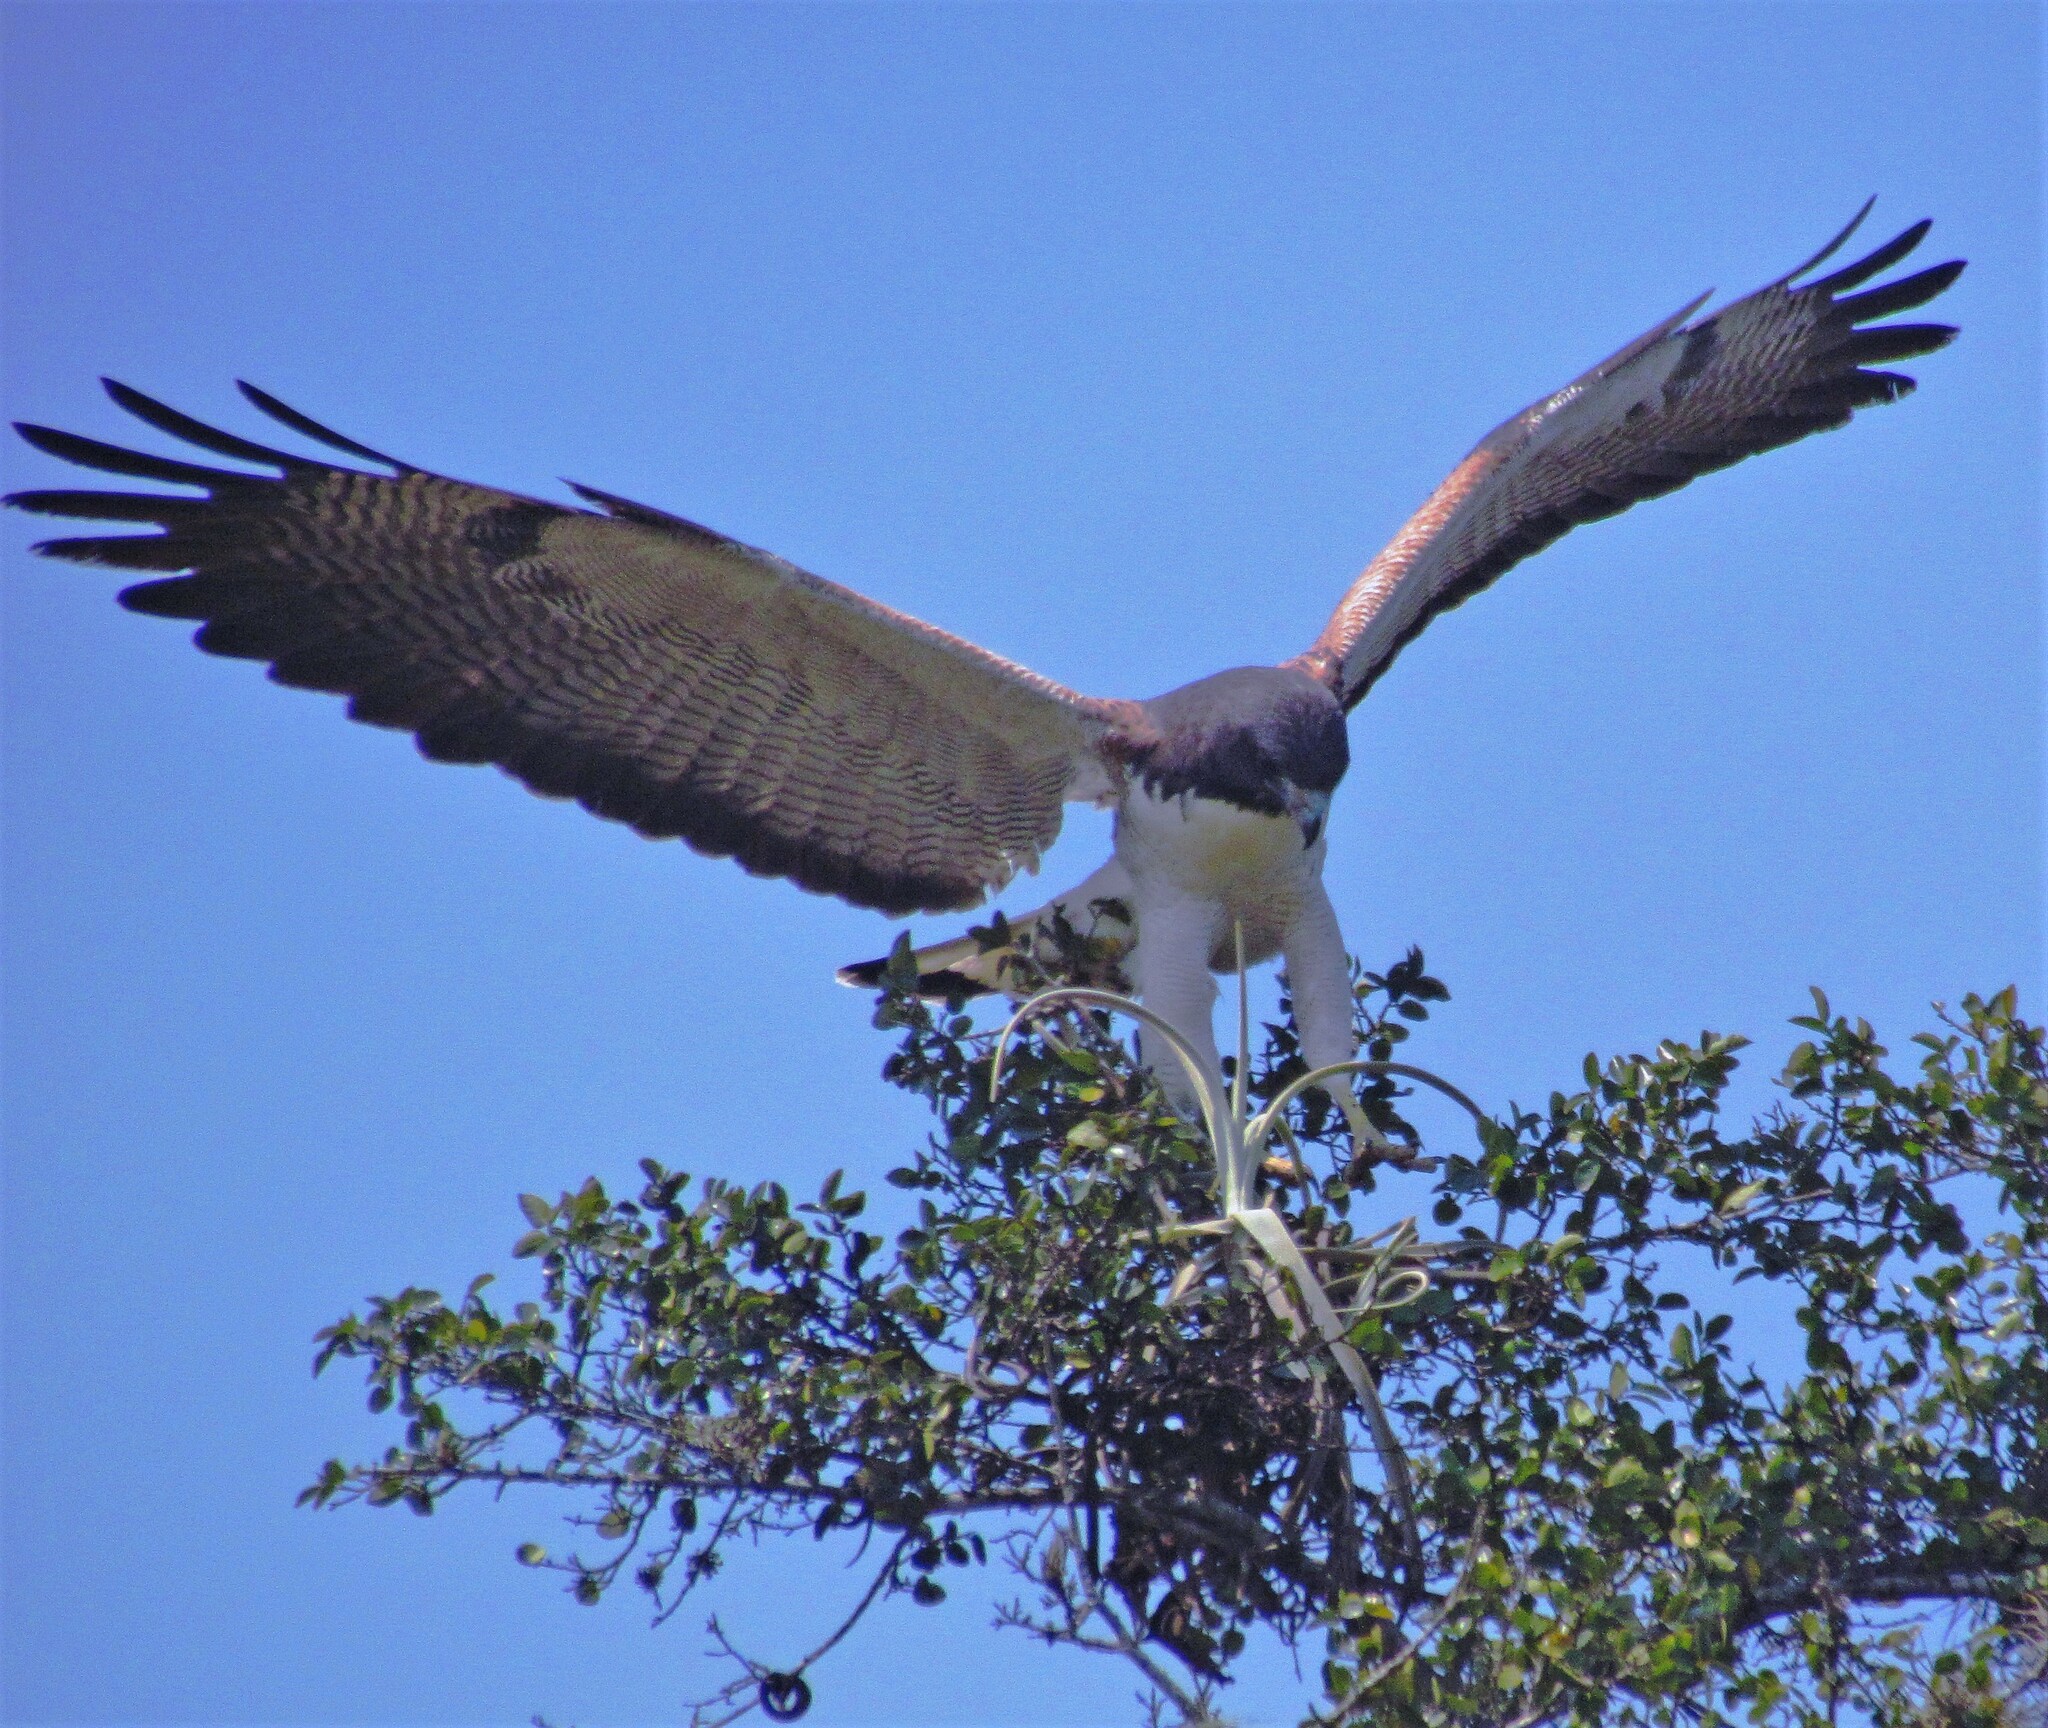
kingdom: Animalia
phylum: Chordata
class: Aves
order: Accipitriformes
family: Accipitridae
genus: Buteo
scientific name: Buteo albicaudatus
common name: White-tailed hawk
